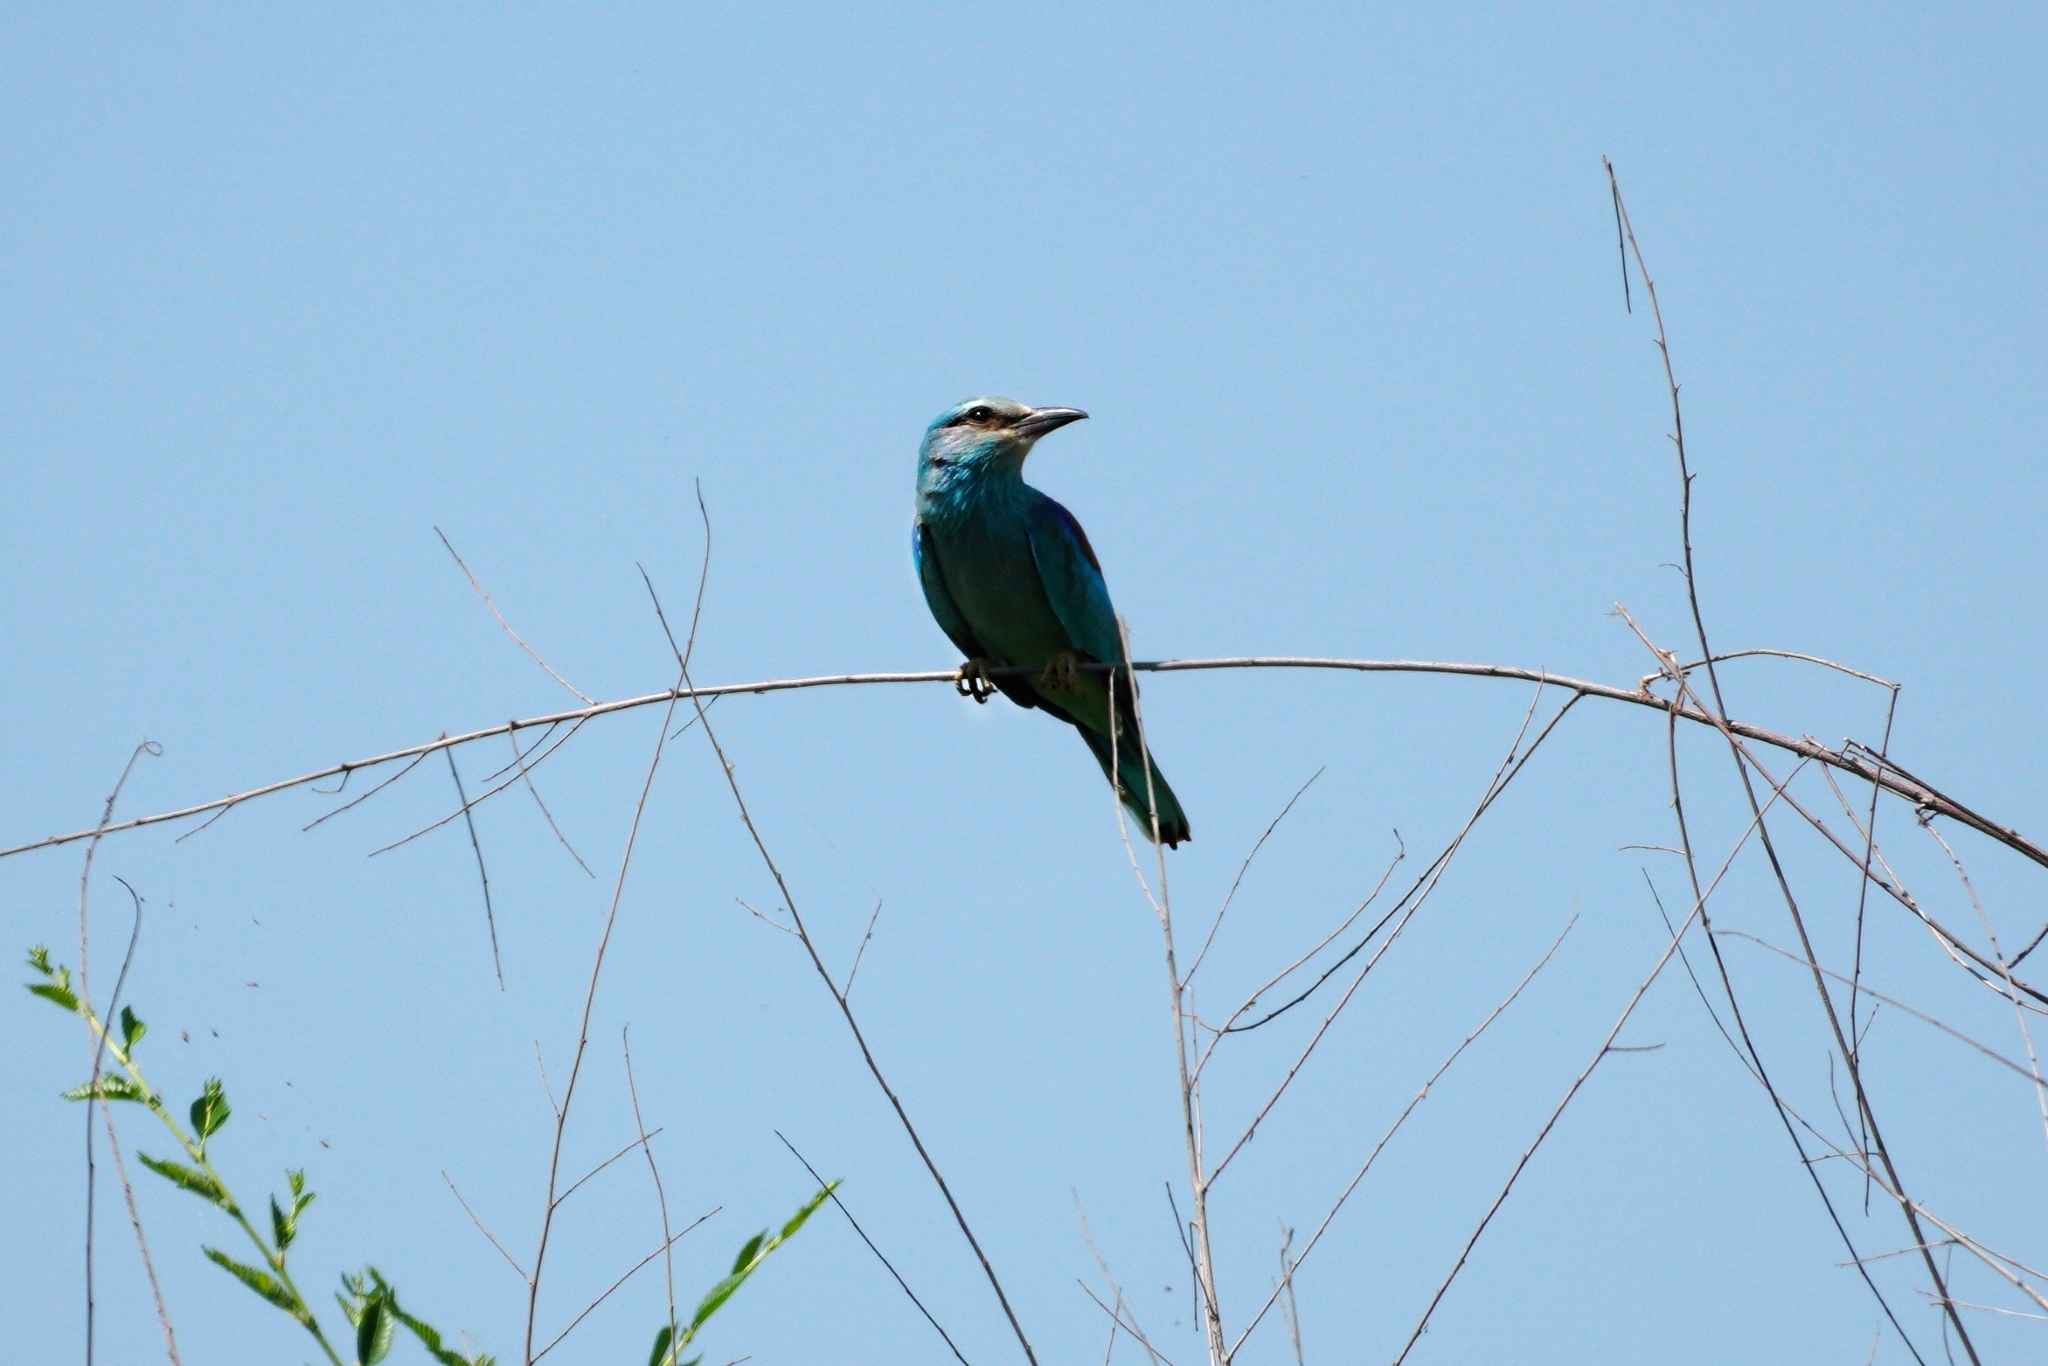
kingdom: Animalia
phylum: Chordata
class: Aves
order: Coraciiformes
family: Coraciidae
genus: Coracias
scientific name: Coracias garrulus
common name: European roller
